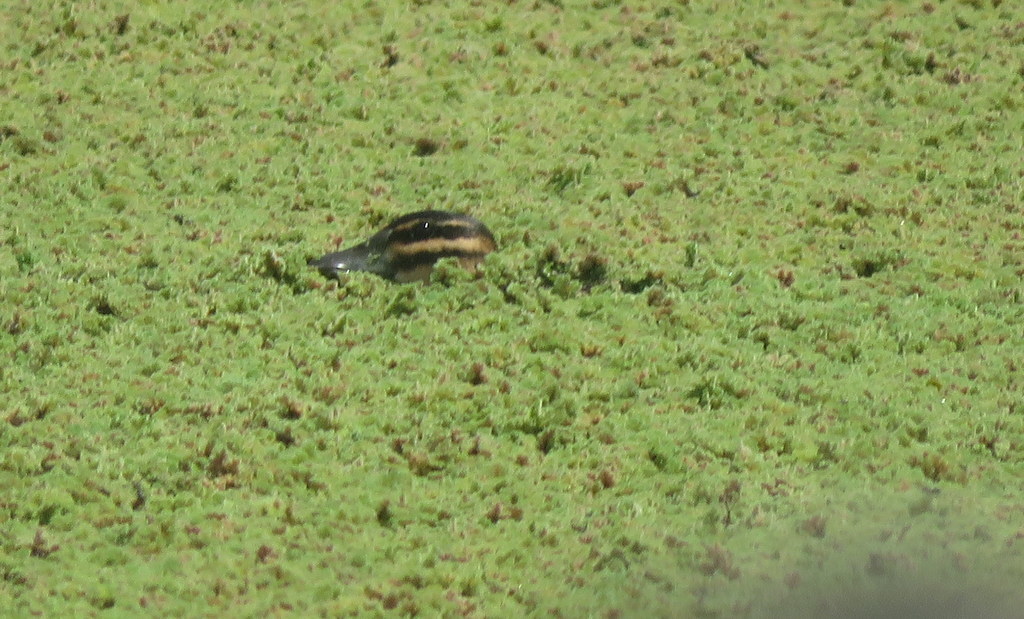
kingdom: Animalia
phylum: Chordata
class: Aves
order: Anseriformes
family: Anatidae
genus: Nomonyx
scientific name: Nomonyx dominicus
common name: Masked duck
